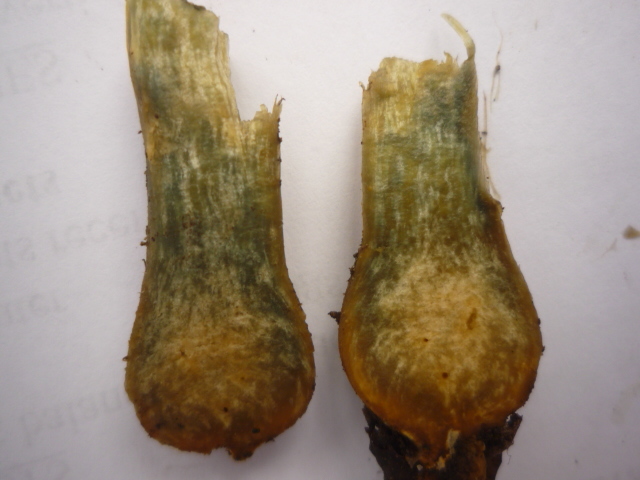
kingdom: Fungi
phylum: Basidiomycota
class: Agaricomycetes
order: Boletales
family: Boletaceae
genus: Hortiboletus
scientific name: Hortiboletus bubalinus
